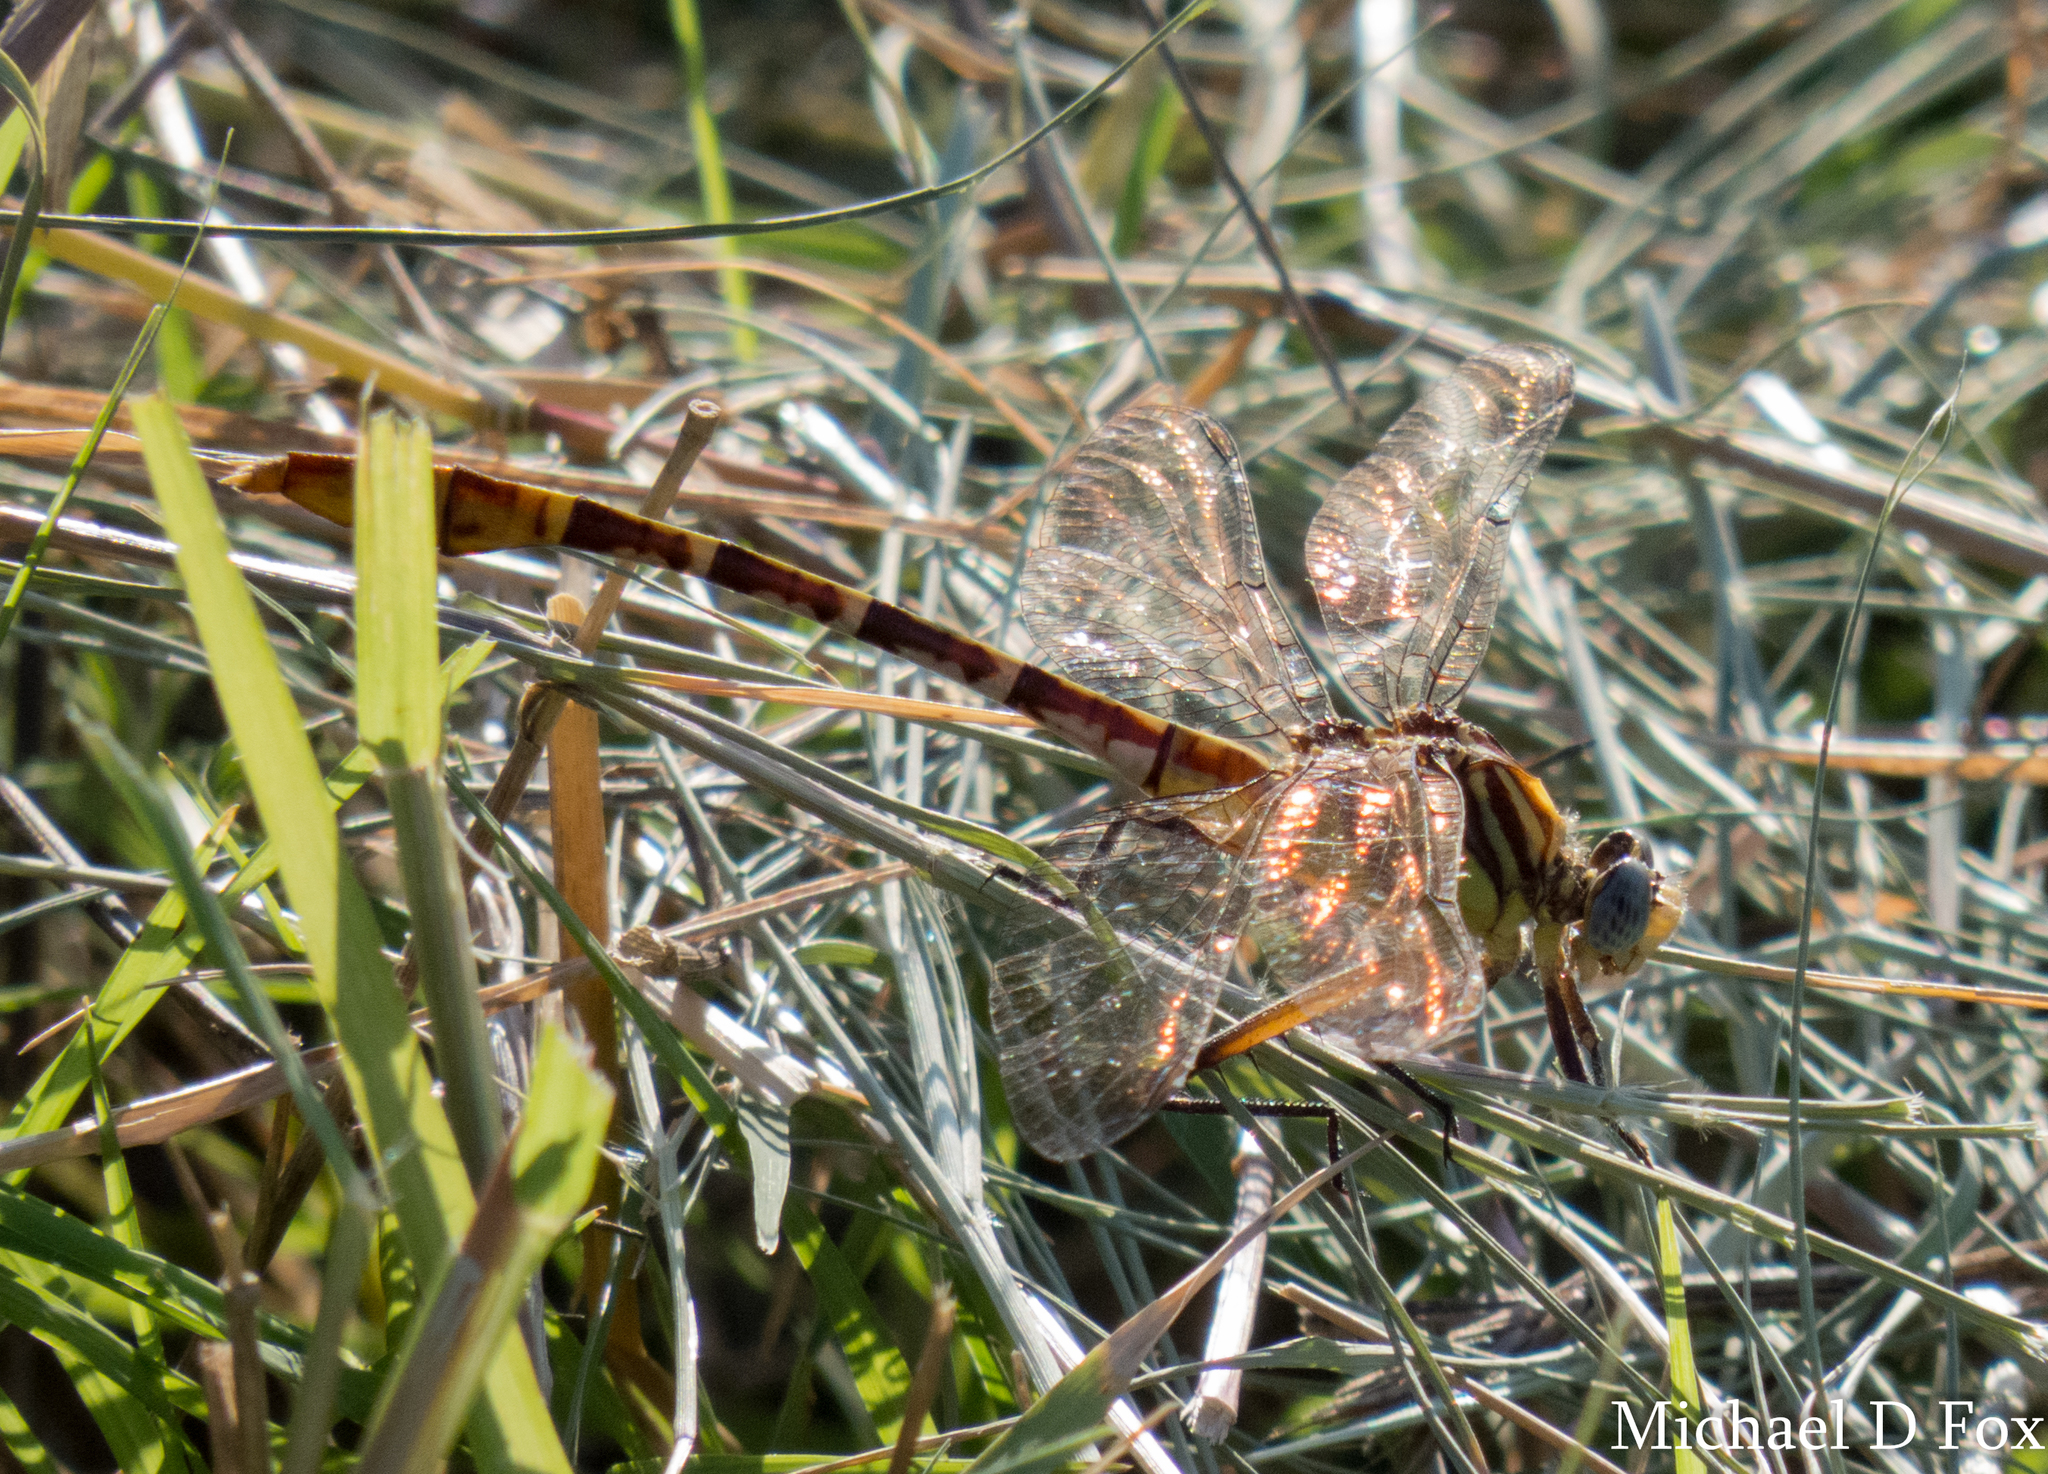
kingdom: Animalia
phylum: Arthropoda
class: Insecta
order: Odonata
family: Gomphidae
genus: Dromogomphus
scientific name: Dromogomphus spoliatus
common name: Flag-tailed spinyleg
